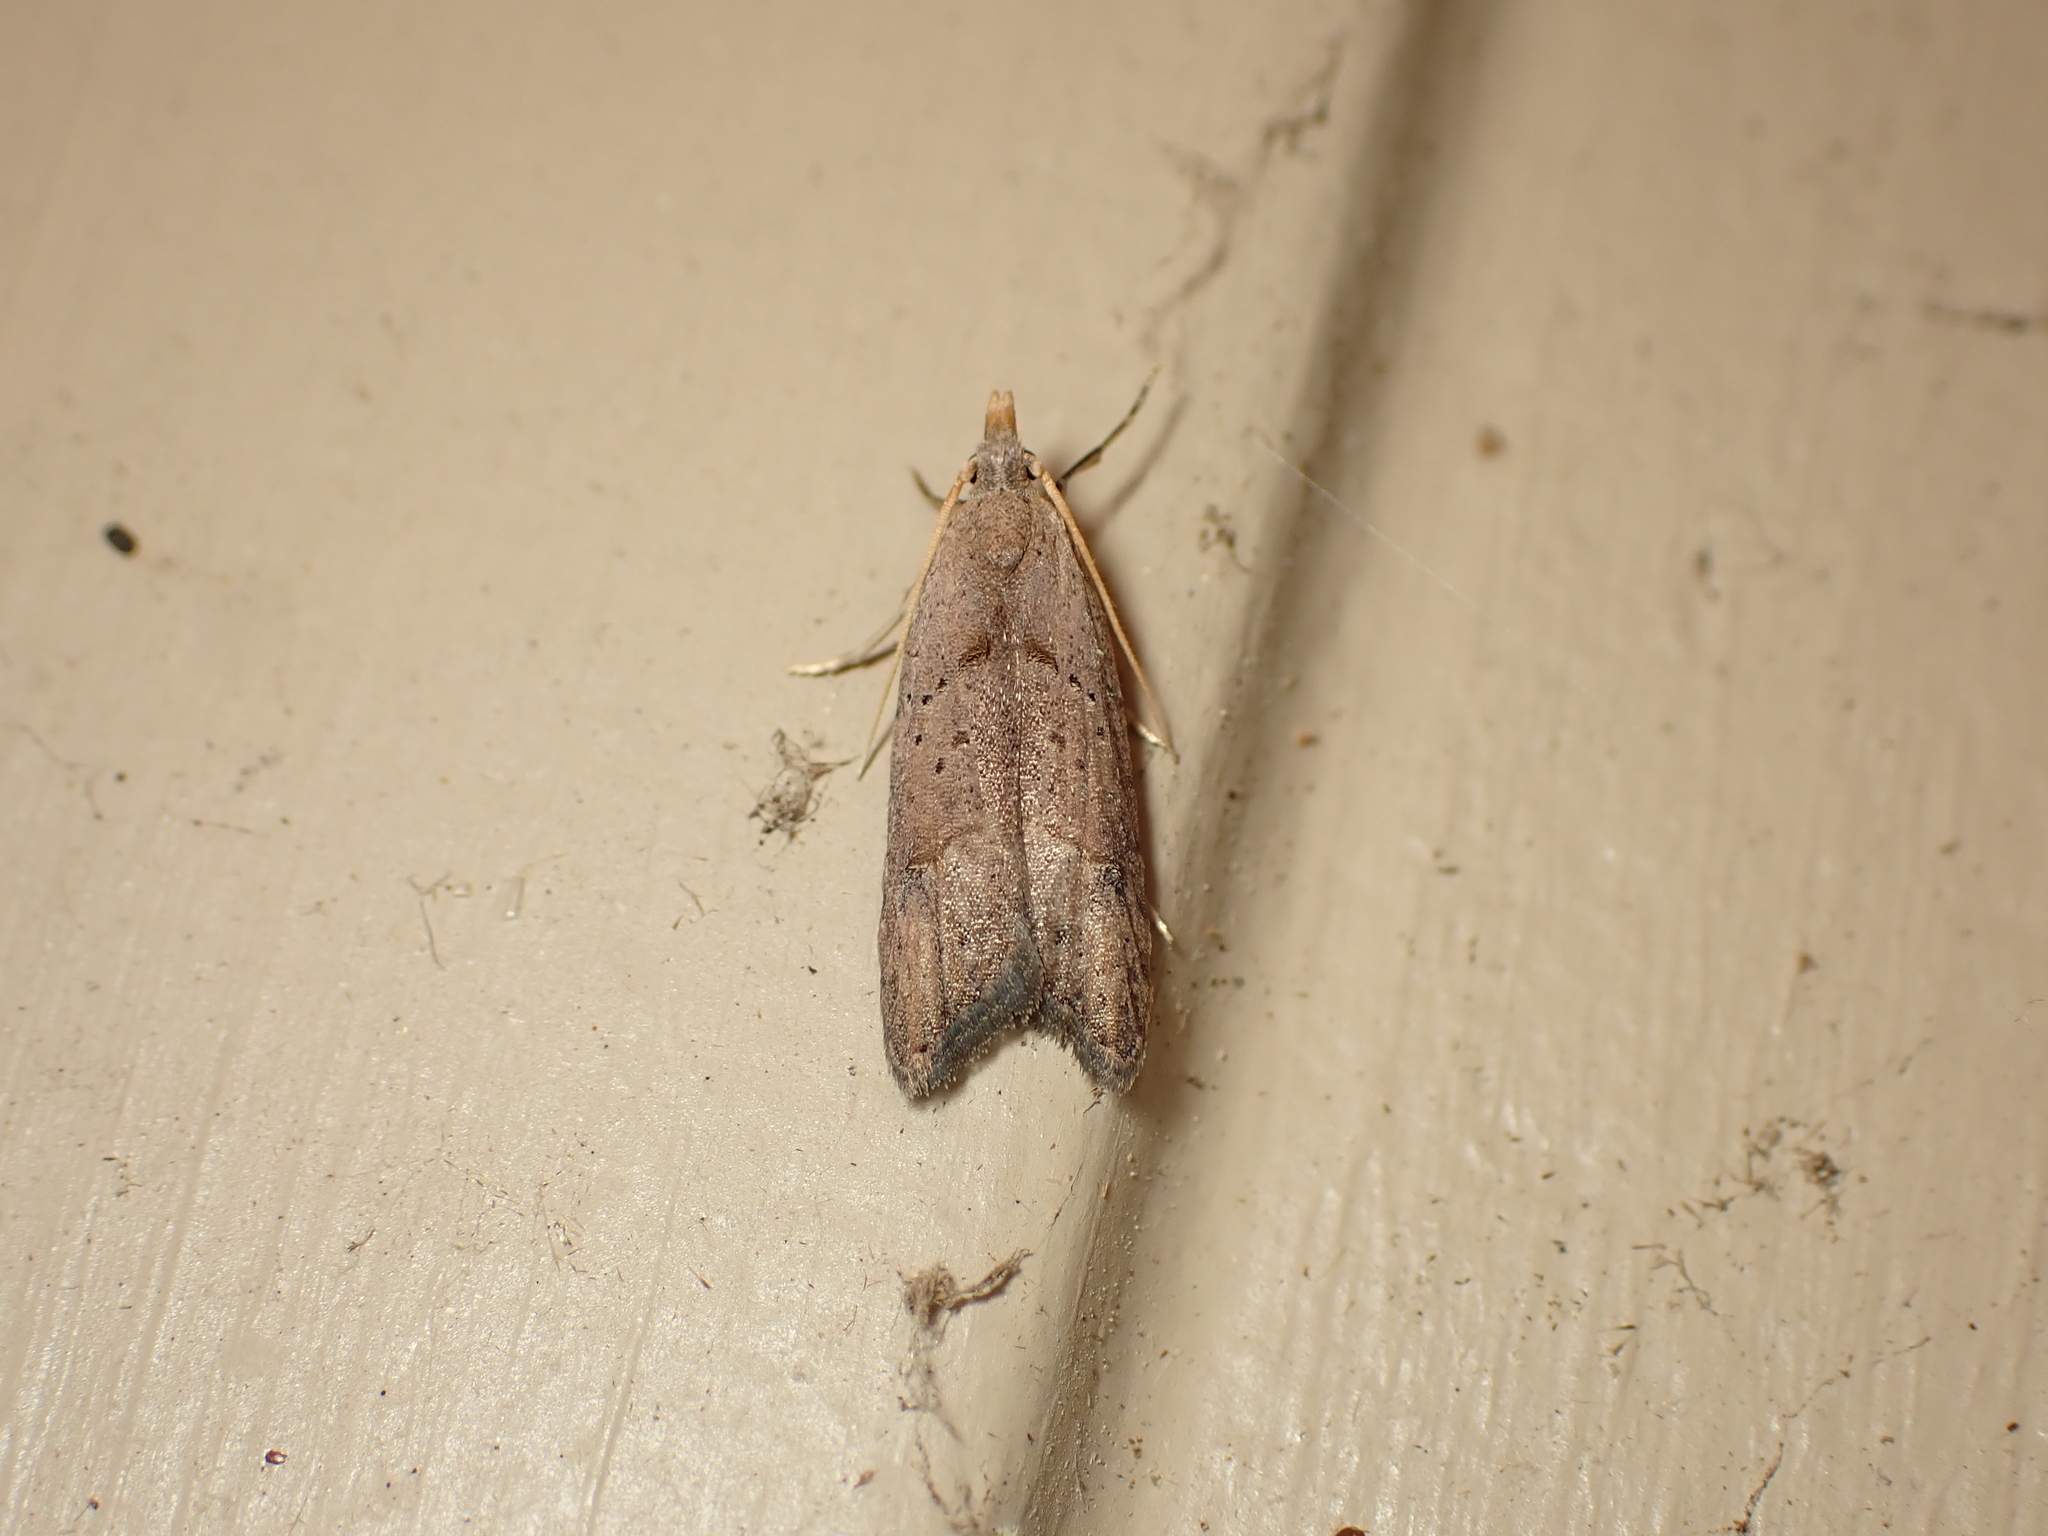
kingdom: Animalia
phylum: Arthropoda
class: Insecta
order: Lepidoptera
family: Carposinidae
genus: Carposina
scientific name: Carposina rubophaga
